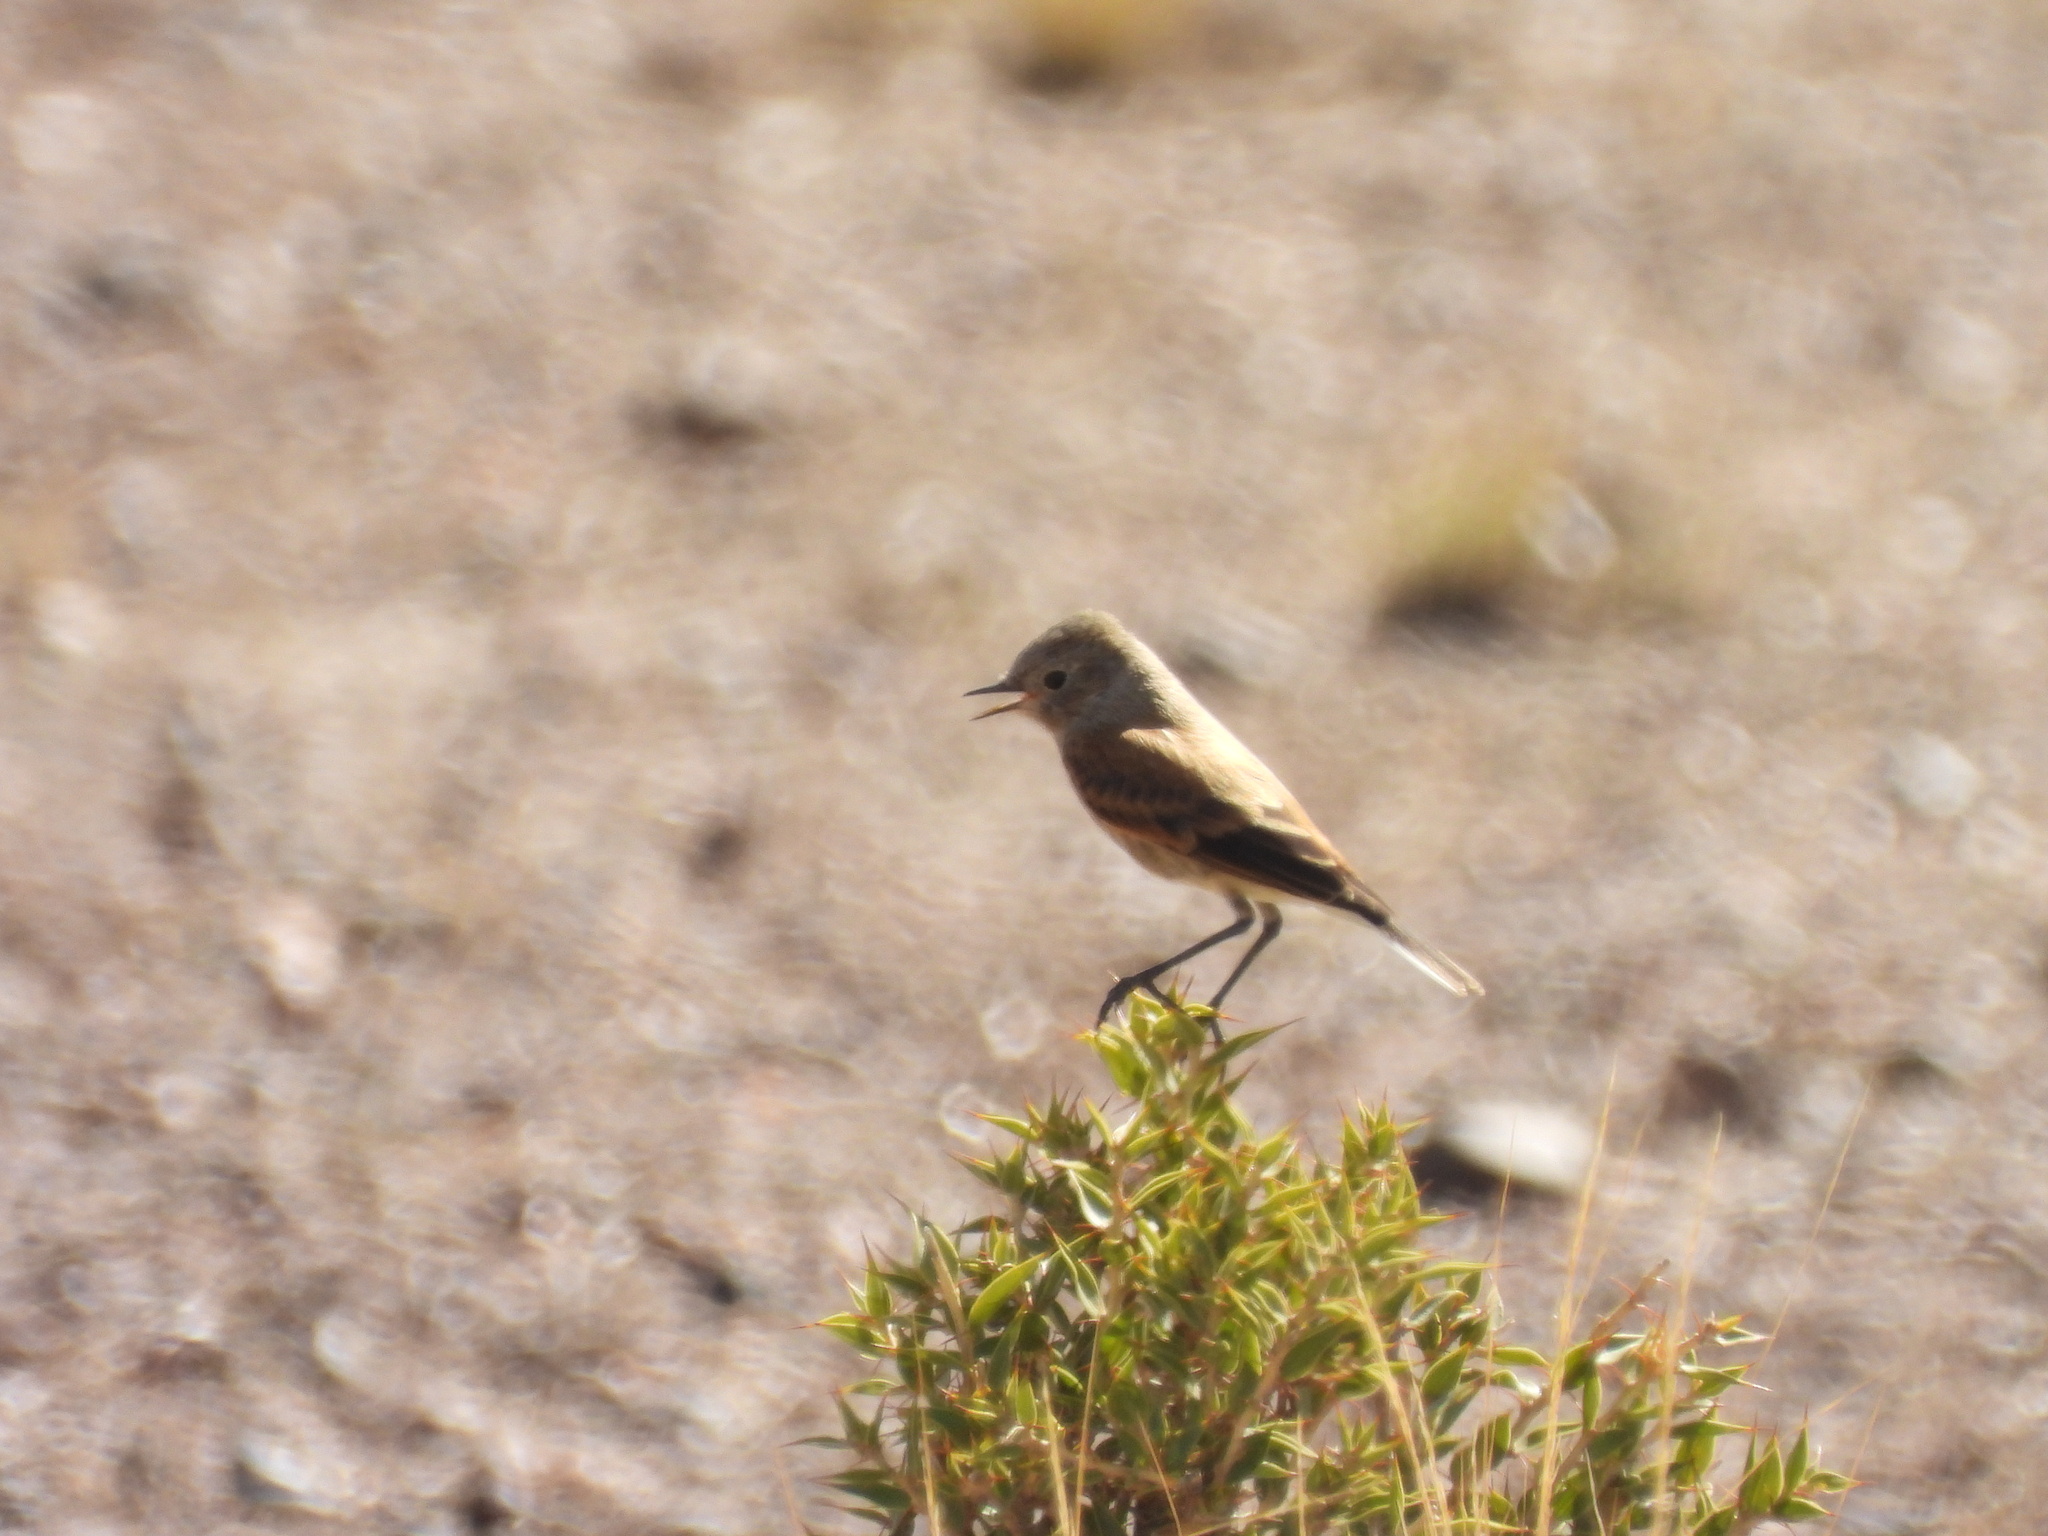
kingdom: Animalia
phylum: Chordata
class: Aves
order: Passeriformes
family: Tyrannidae
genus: Lessonia
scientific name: Lessonia rufa
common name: Austral negrito
